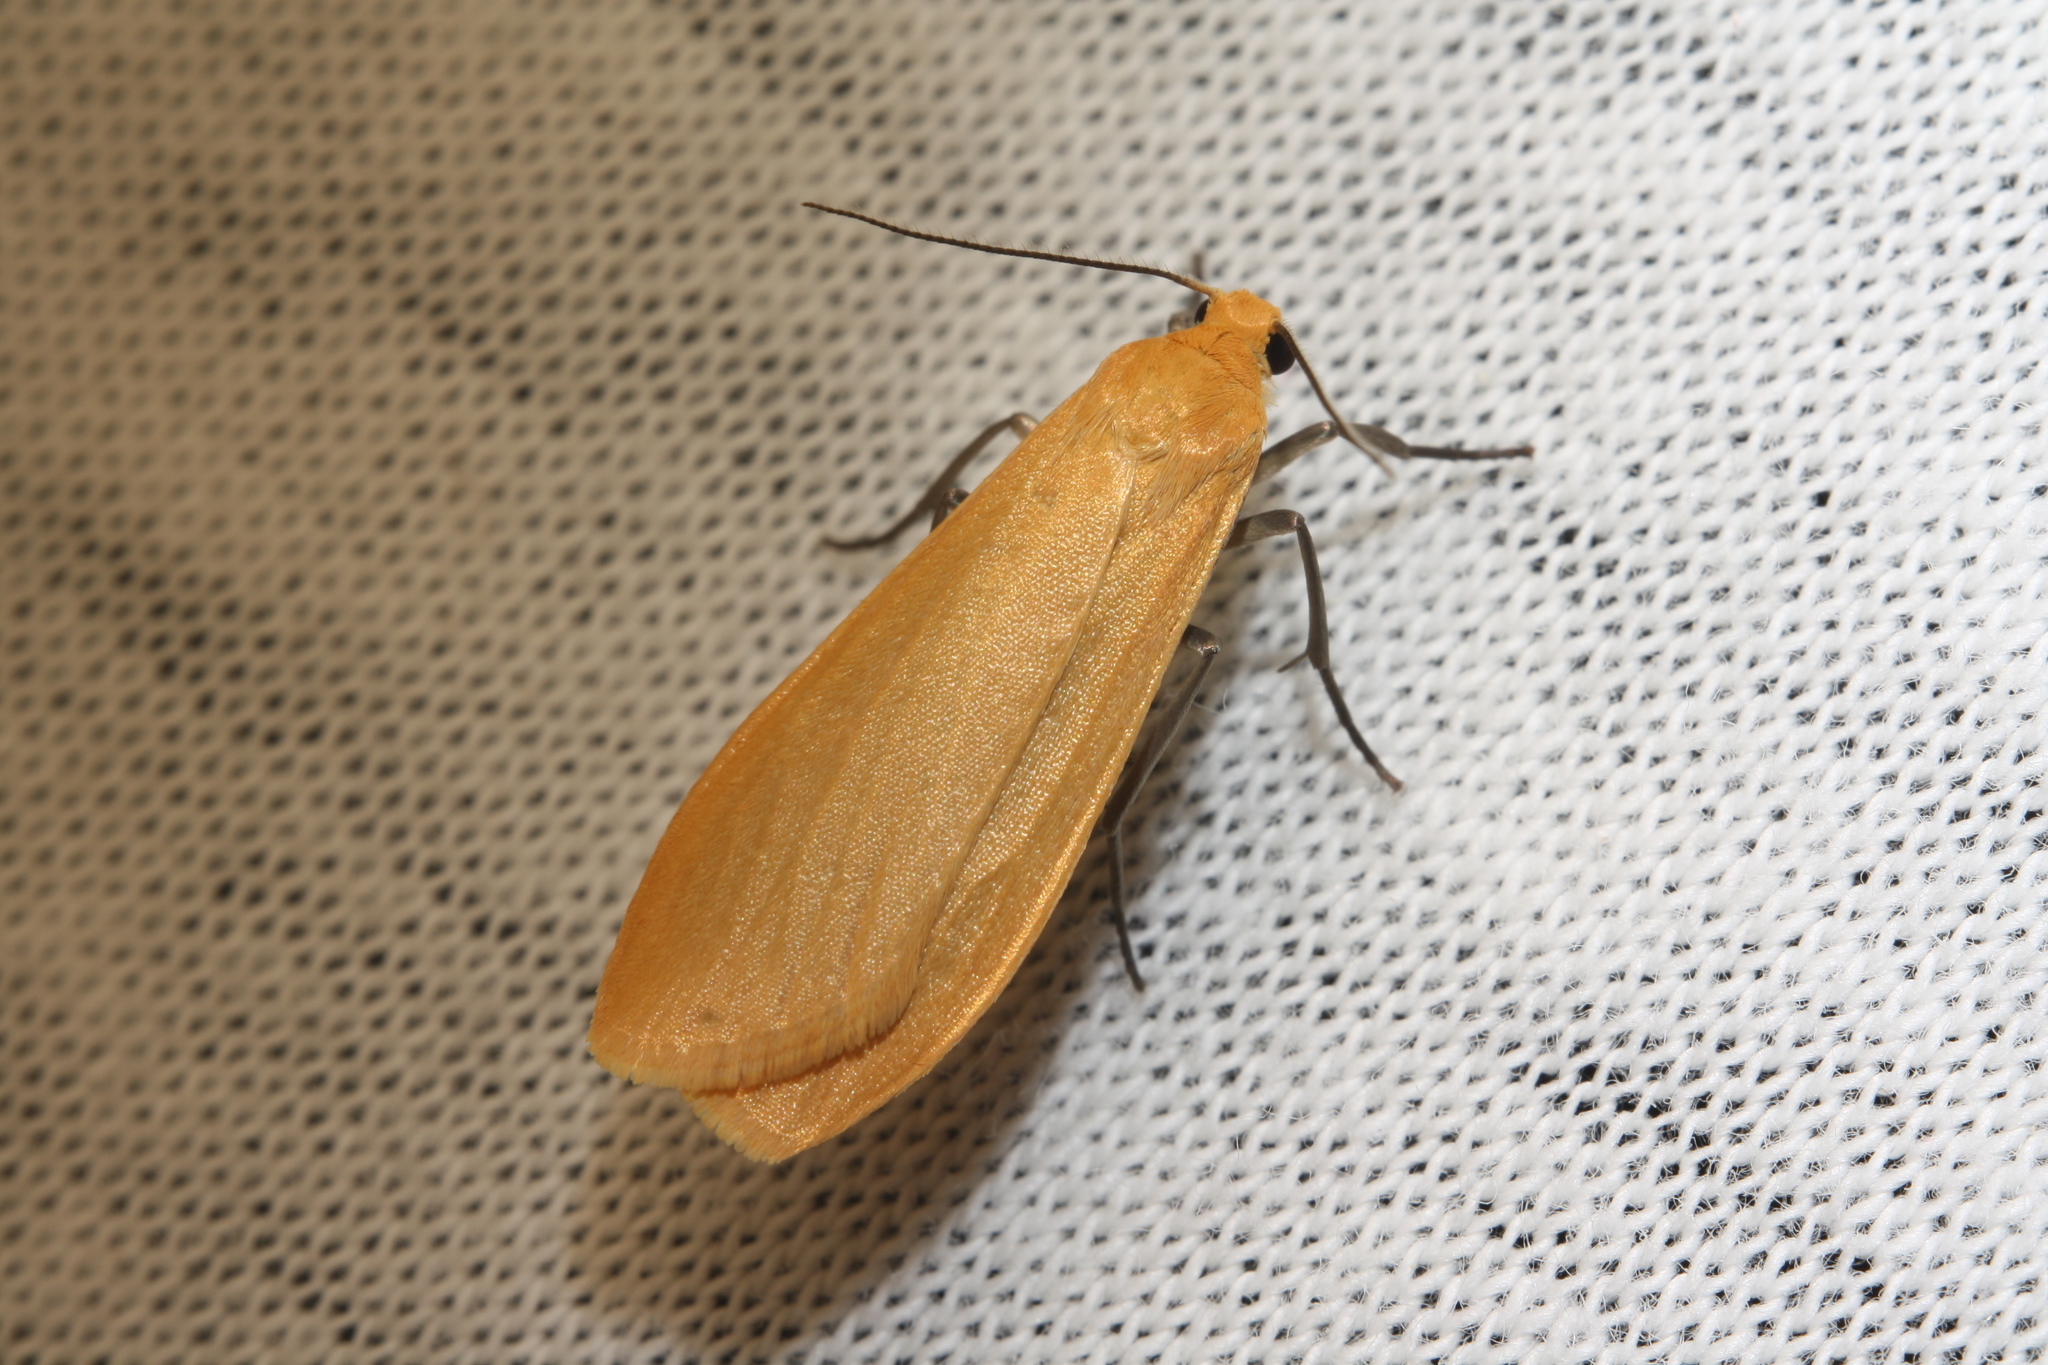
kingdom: Animalia
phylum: Arthropoda
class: Insecta
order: Lepidoptera
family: Erebidae
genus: Wittia
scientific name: Wittia sororcula
